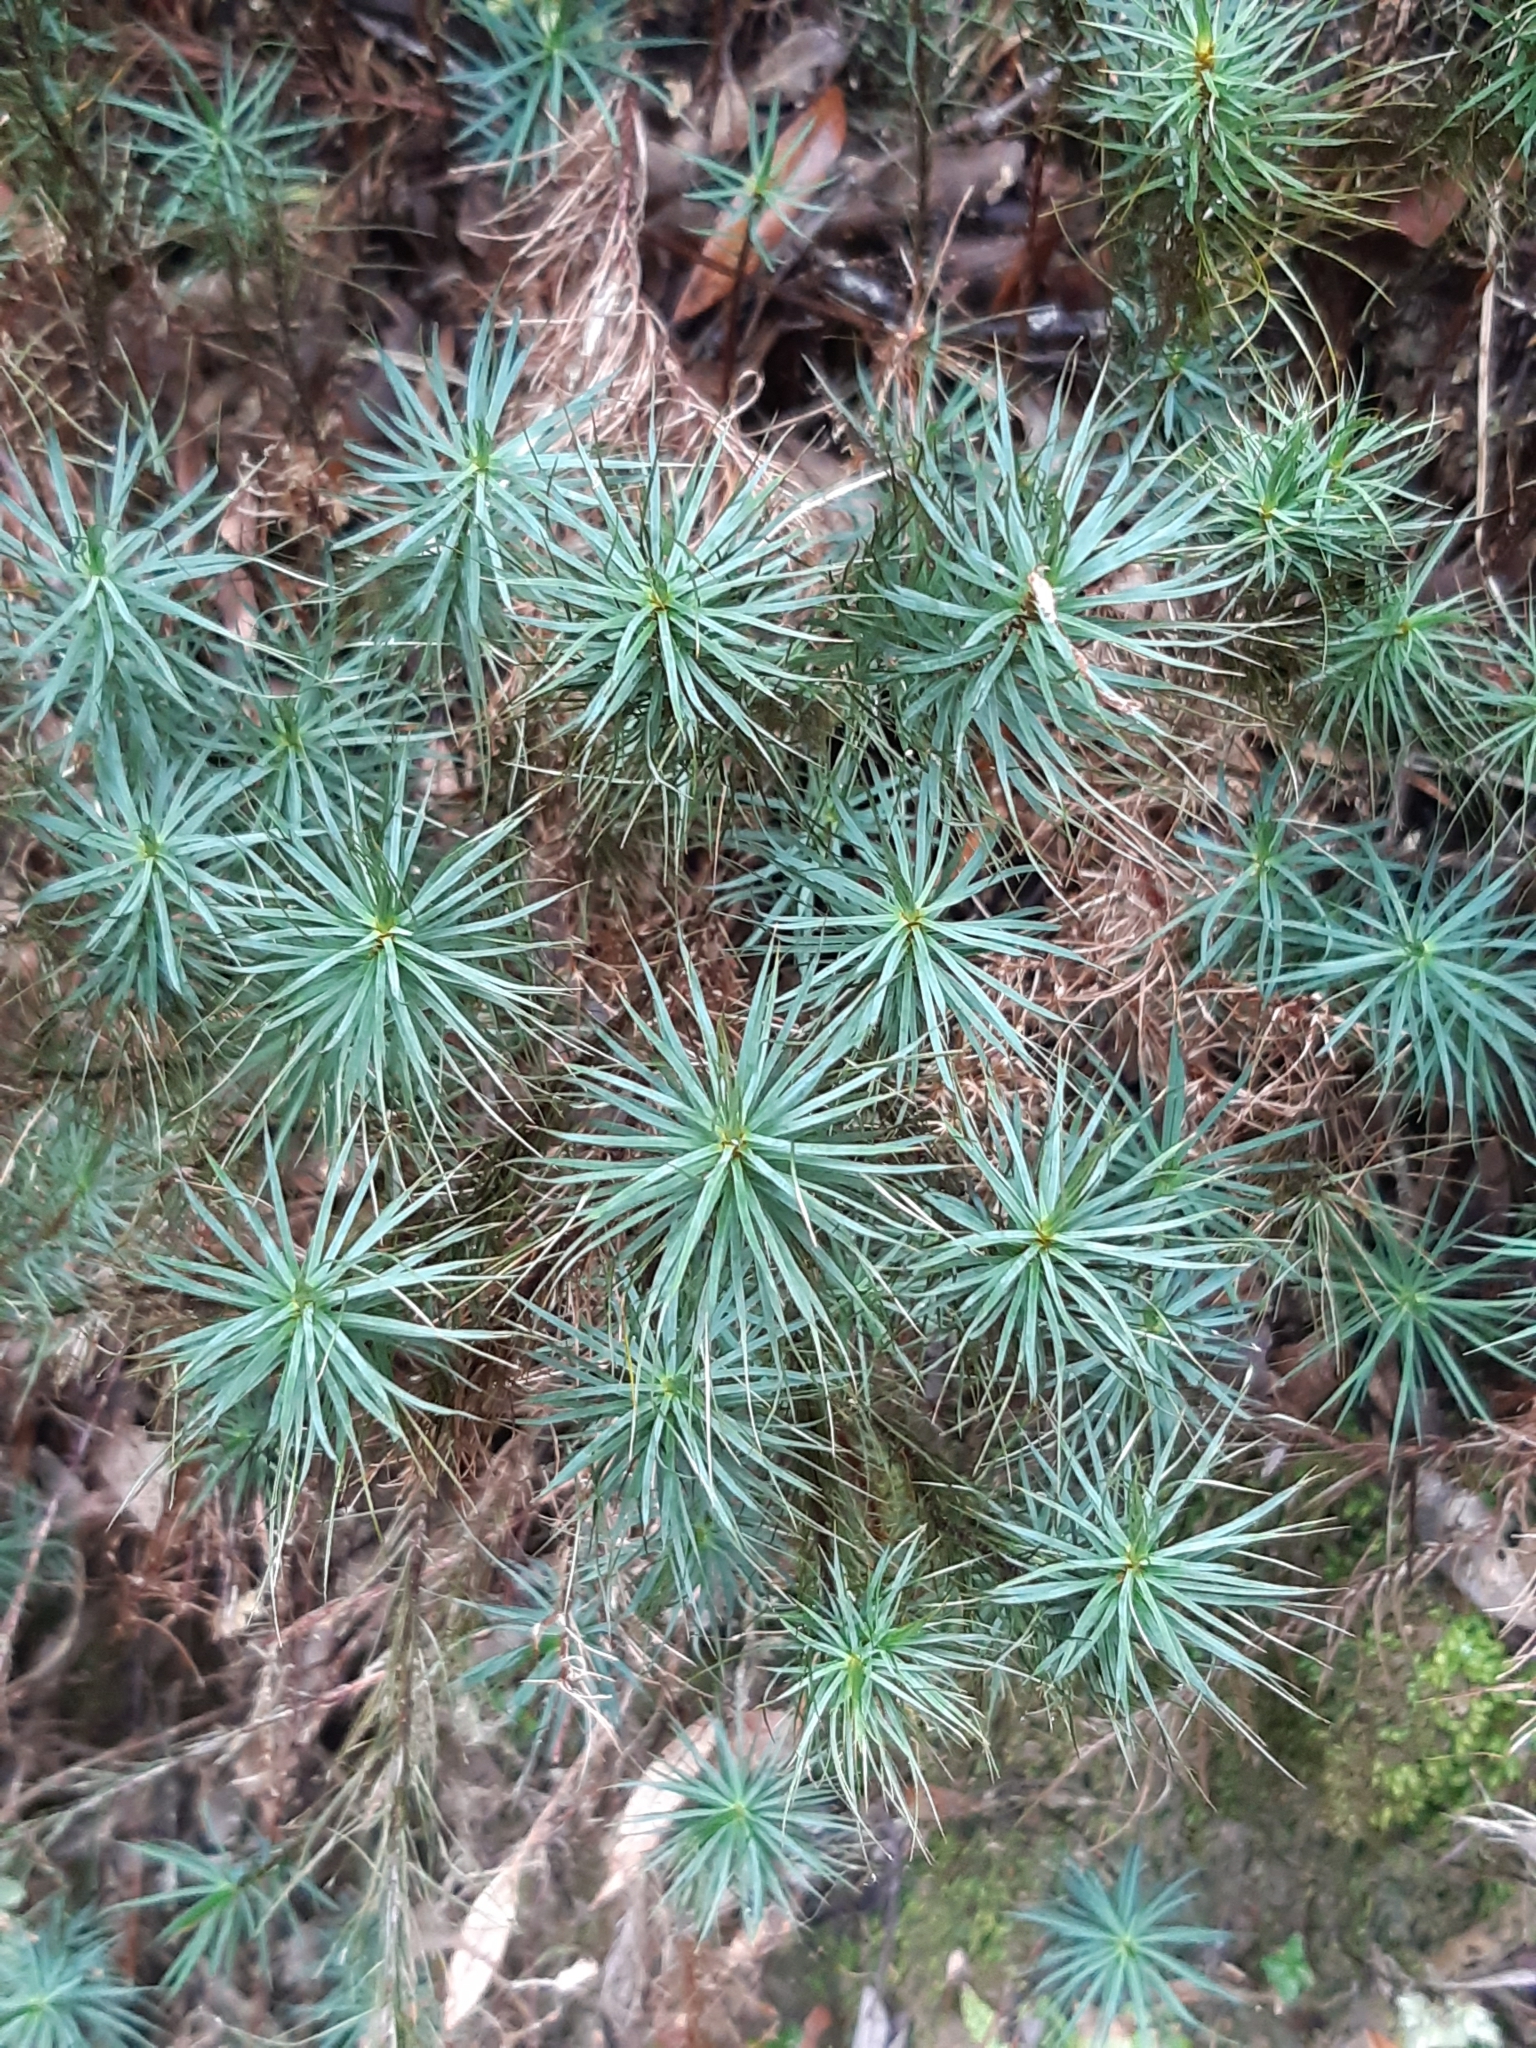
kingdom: Plantae
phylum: Bryophyta
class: Polytrichopsida
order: Polytrichales
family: Polytrichaceae
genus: Dawsonia
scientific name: Dawsonia superba
